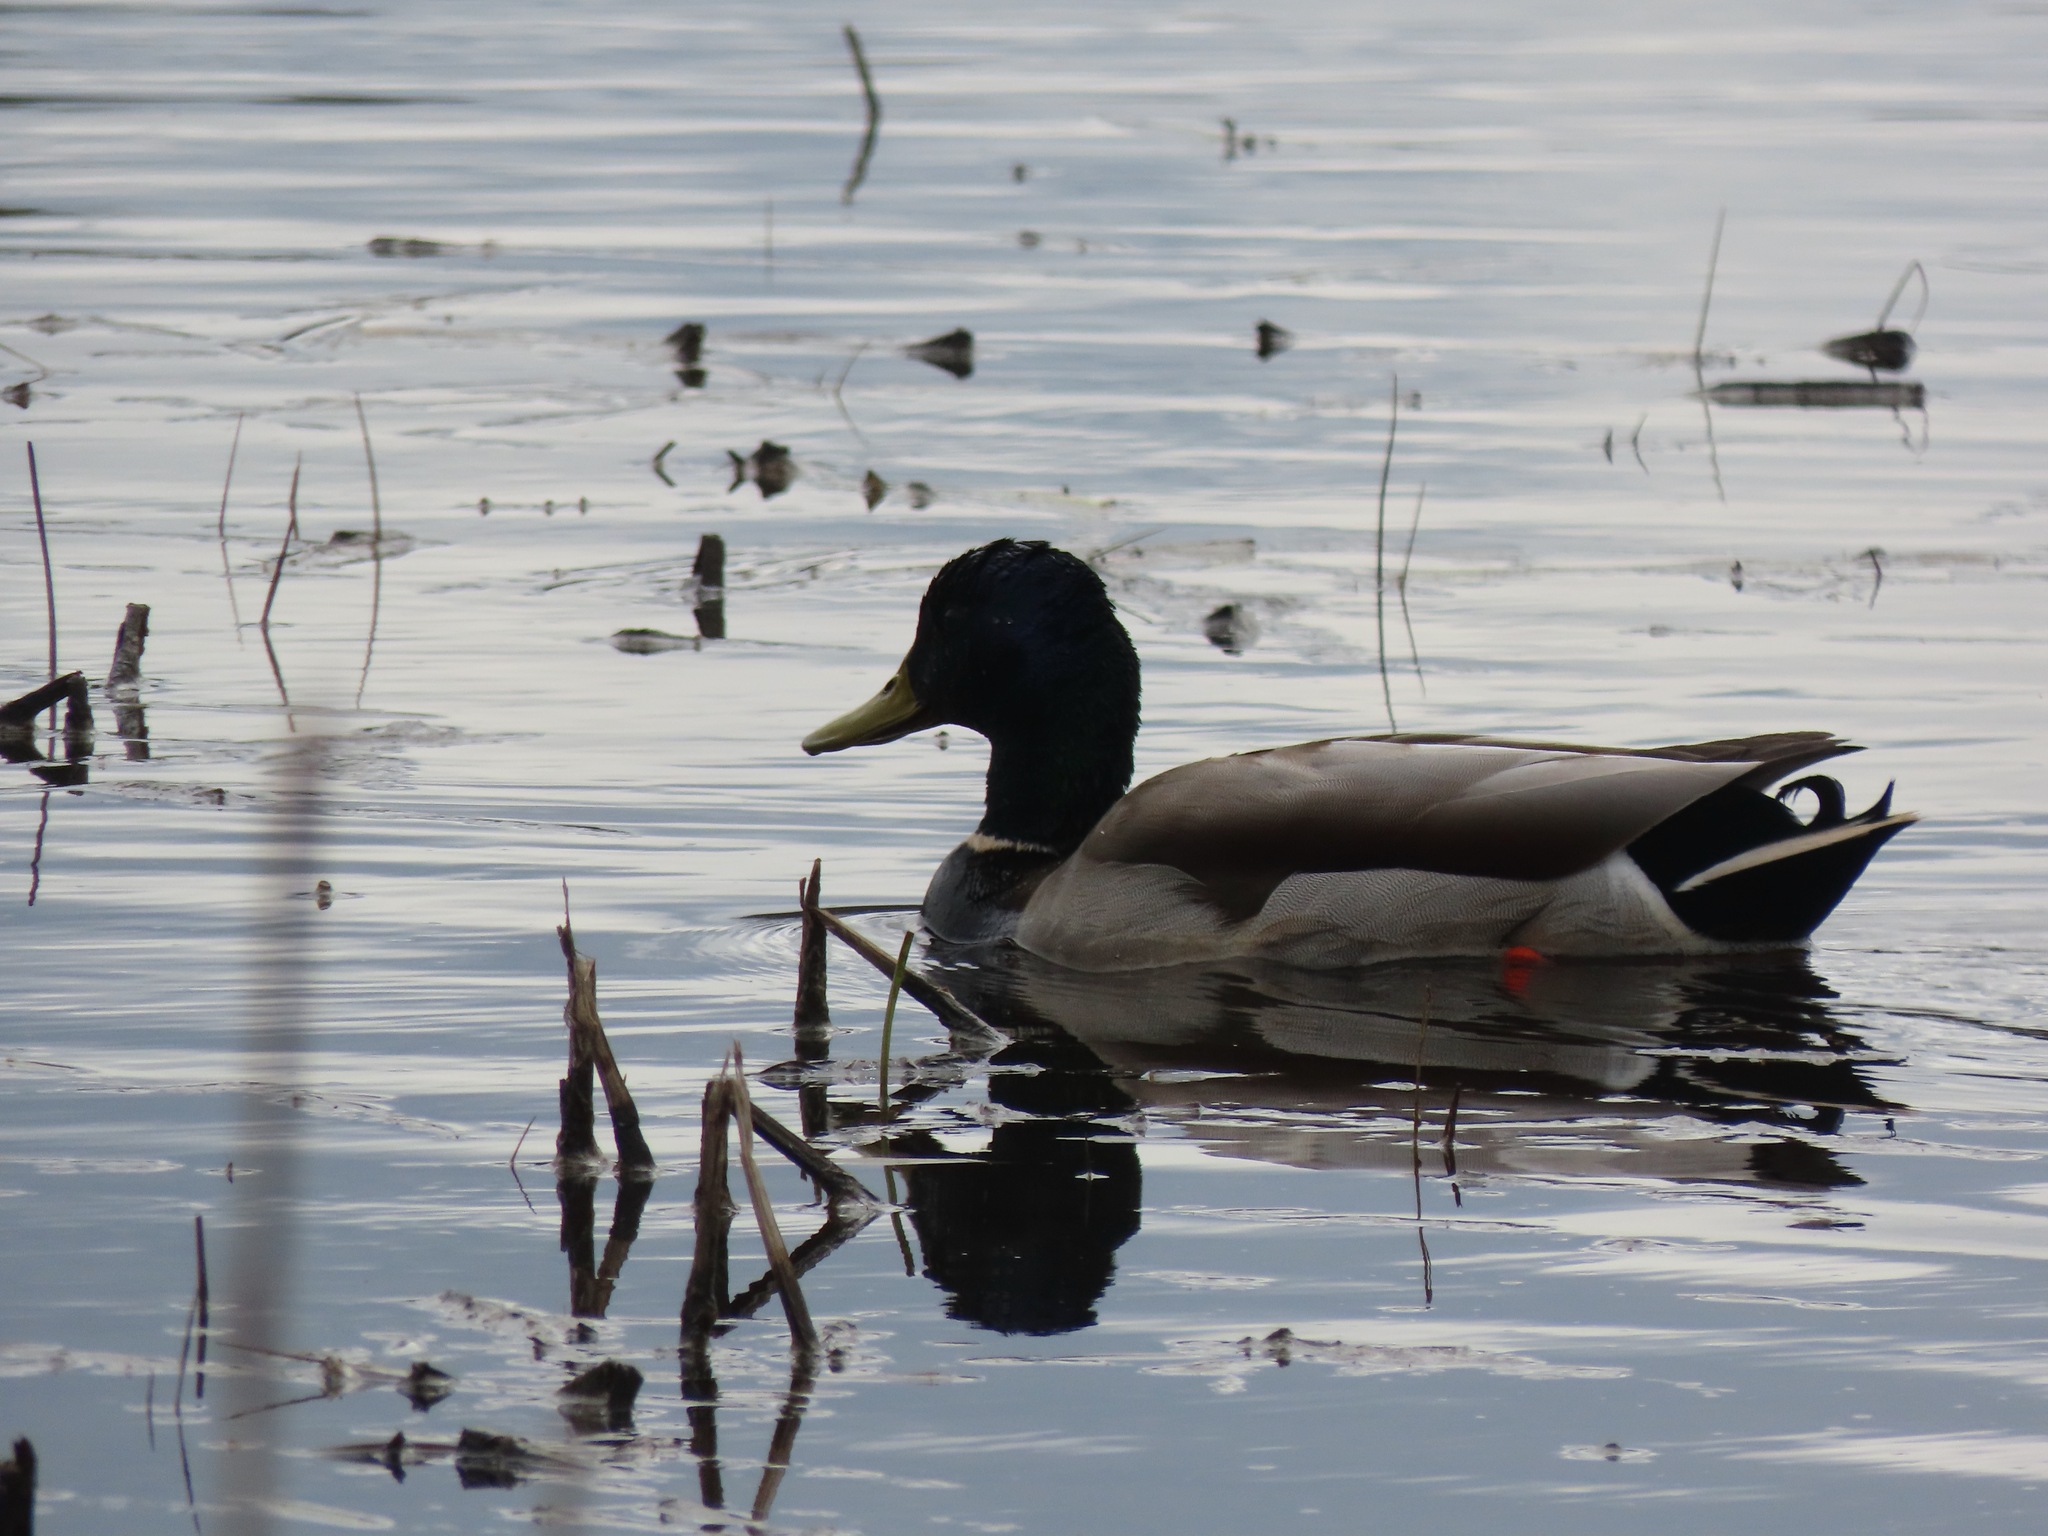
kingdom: Animalia
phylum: Chordata
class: Aves
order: Anseriformes
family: Anatidae
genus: Anas
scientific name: Anas platyrhynchos
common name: Mallard
